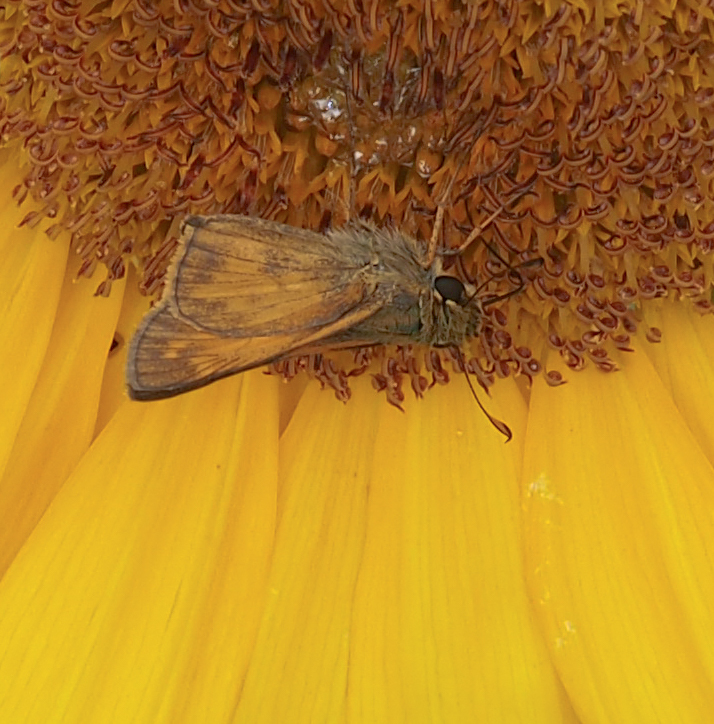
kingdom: Animalia
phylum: Arthropoda
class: Insecta
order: Lepidoptera
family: Hesperiidae
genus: Atalopedes
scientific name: Atalopedes
